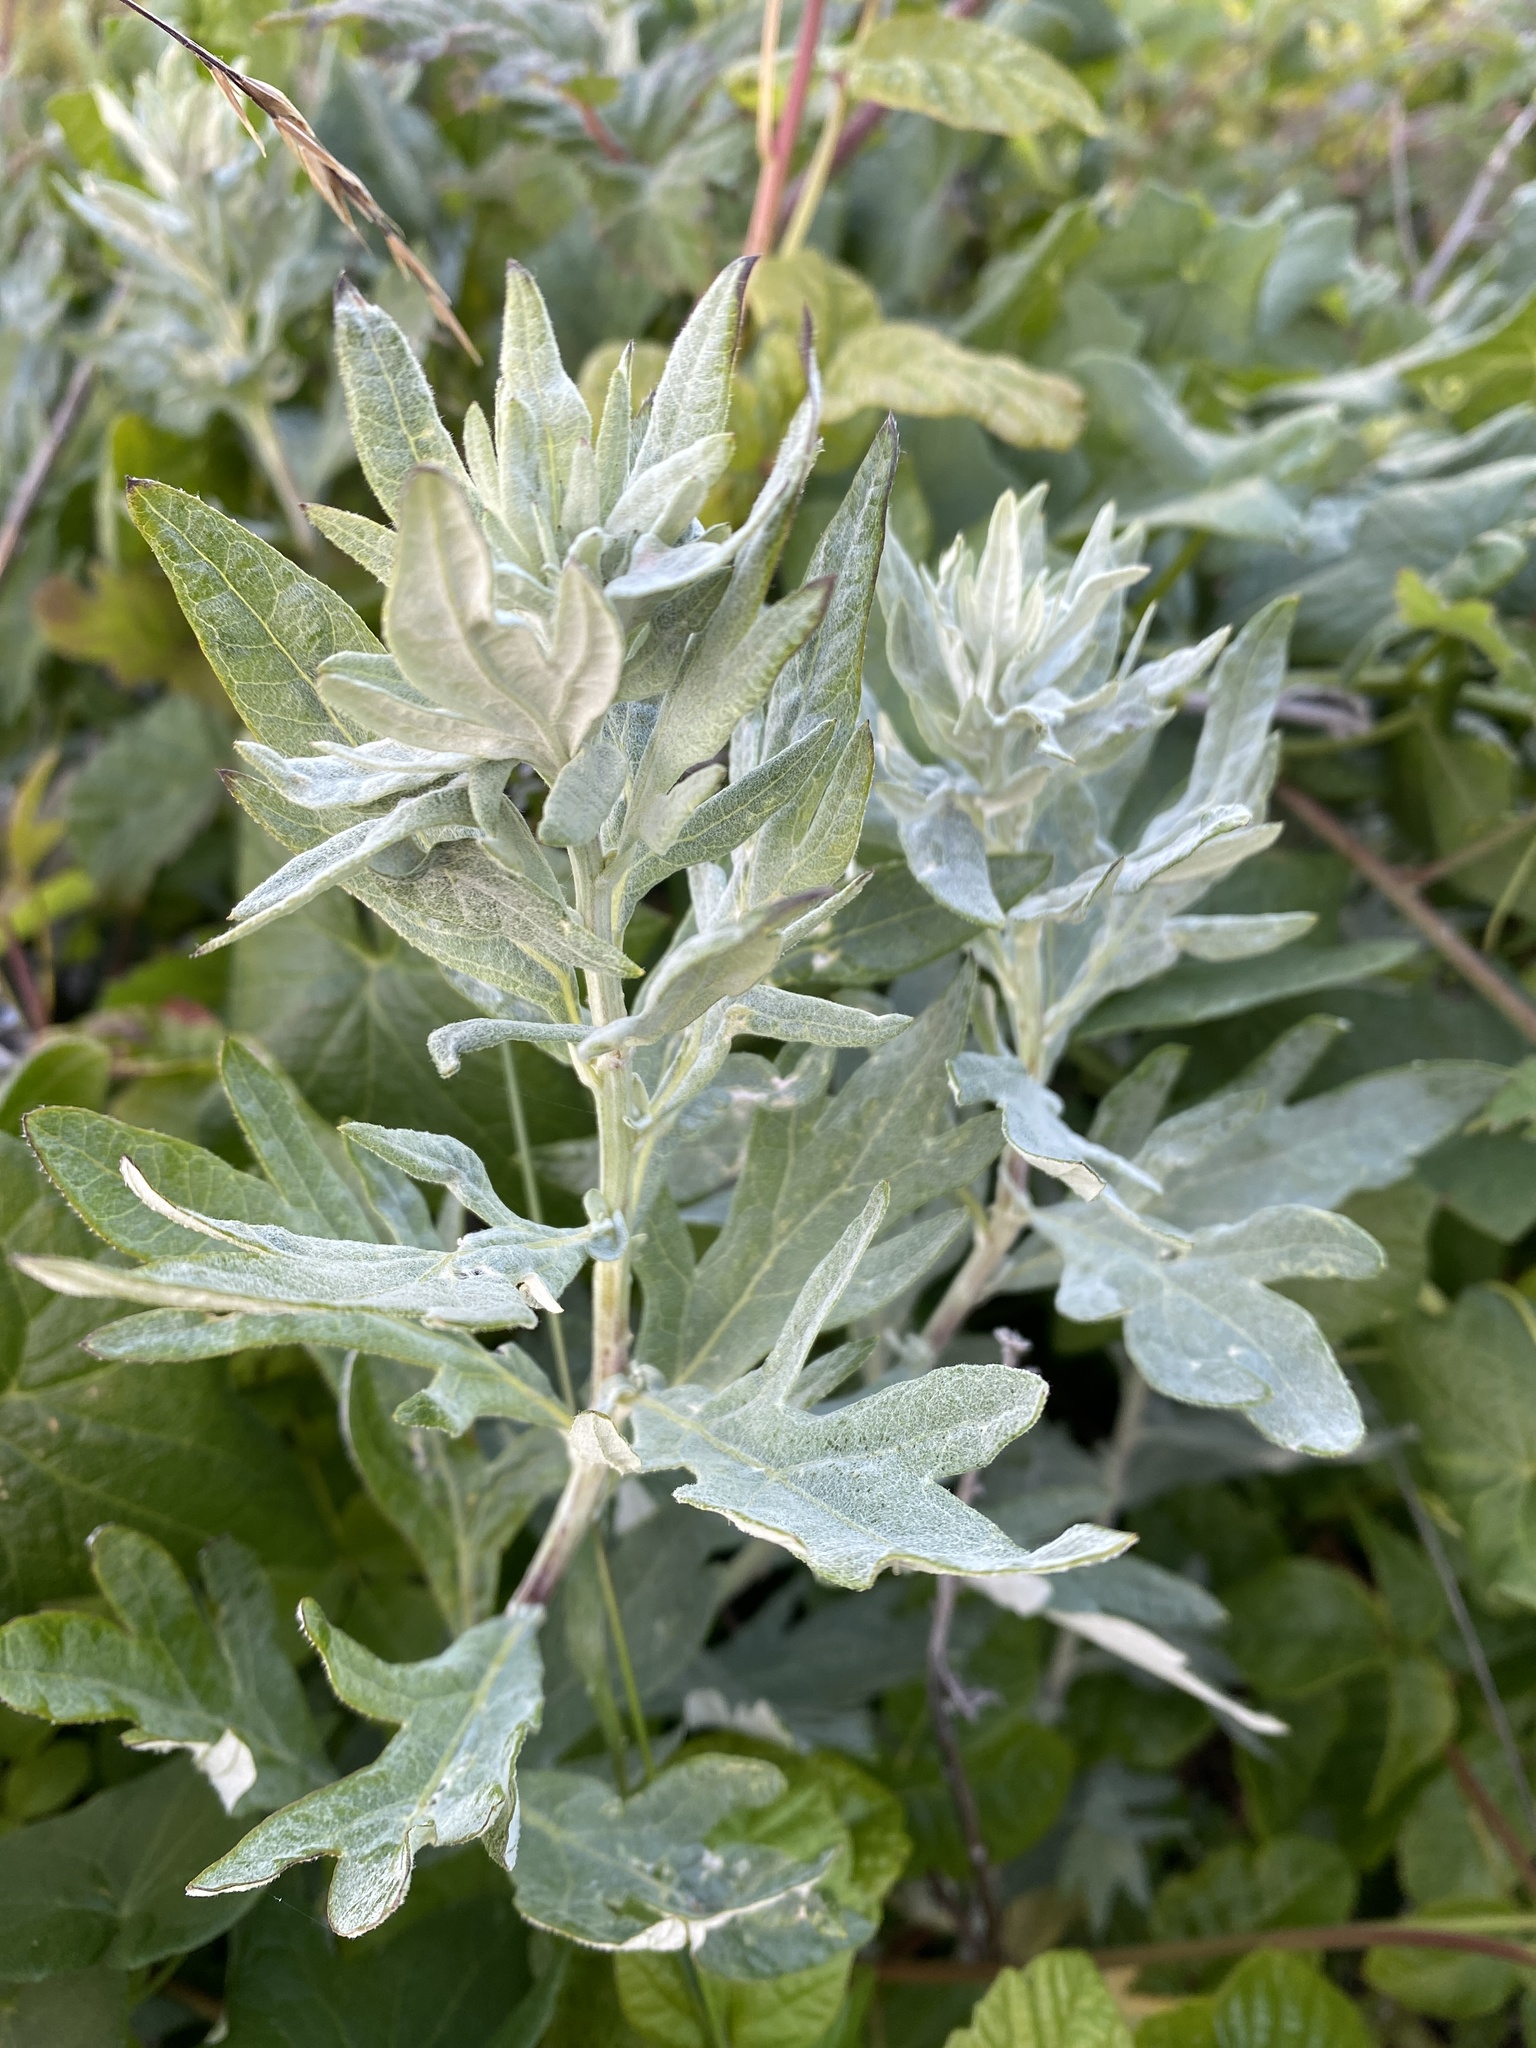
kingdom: Plantae
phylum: Tracheophyta
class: Magnoliopsida
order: Asterales
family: Asteraceae
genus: Artemisia
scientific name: Artemisia douglasiana
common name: Northwest mugwort
